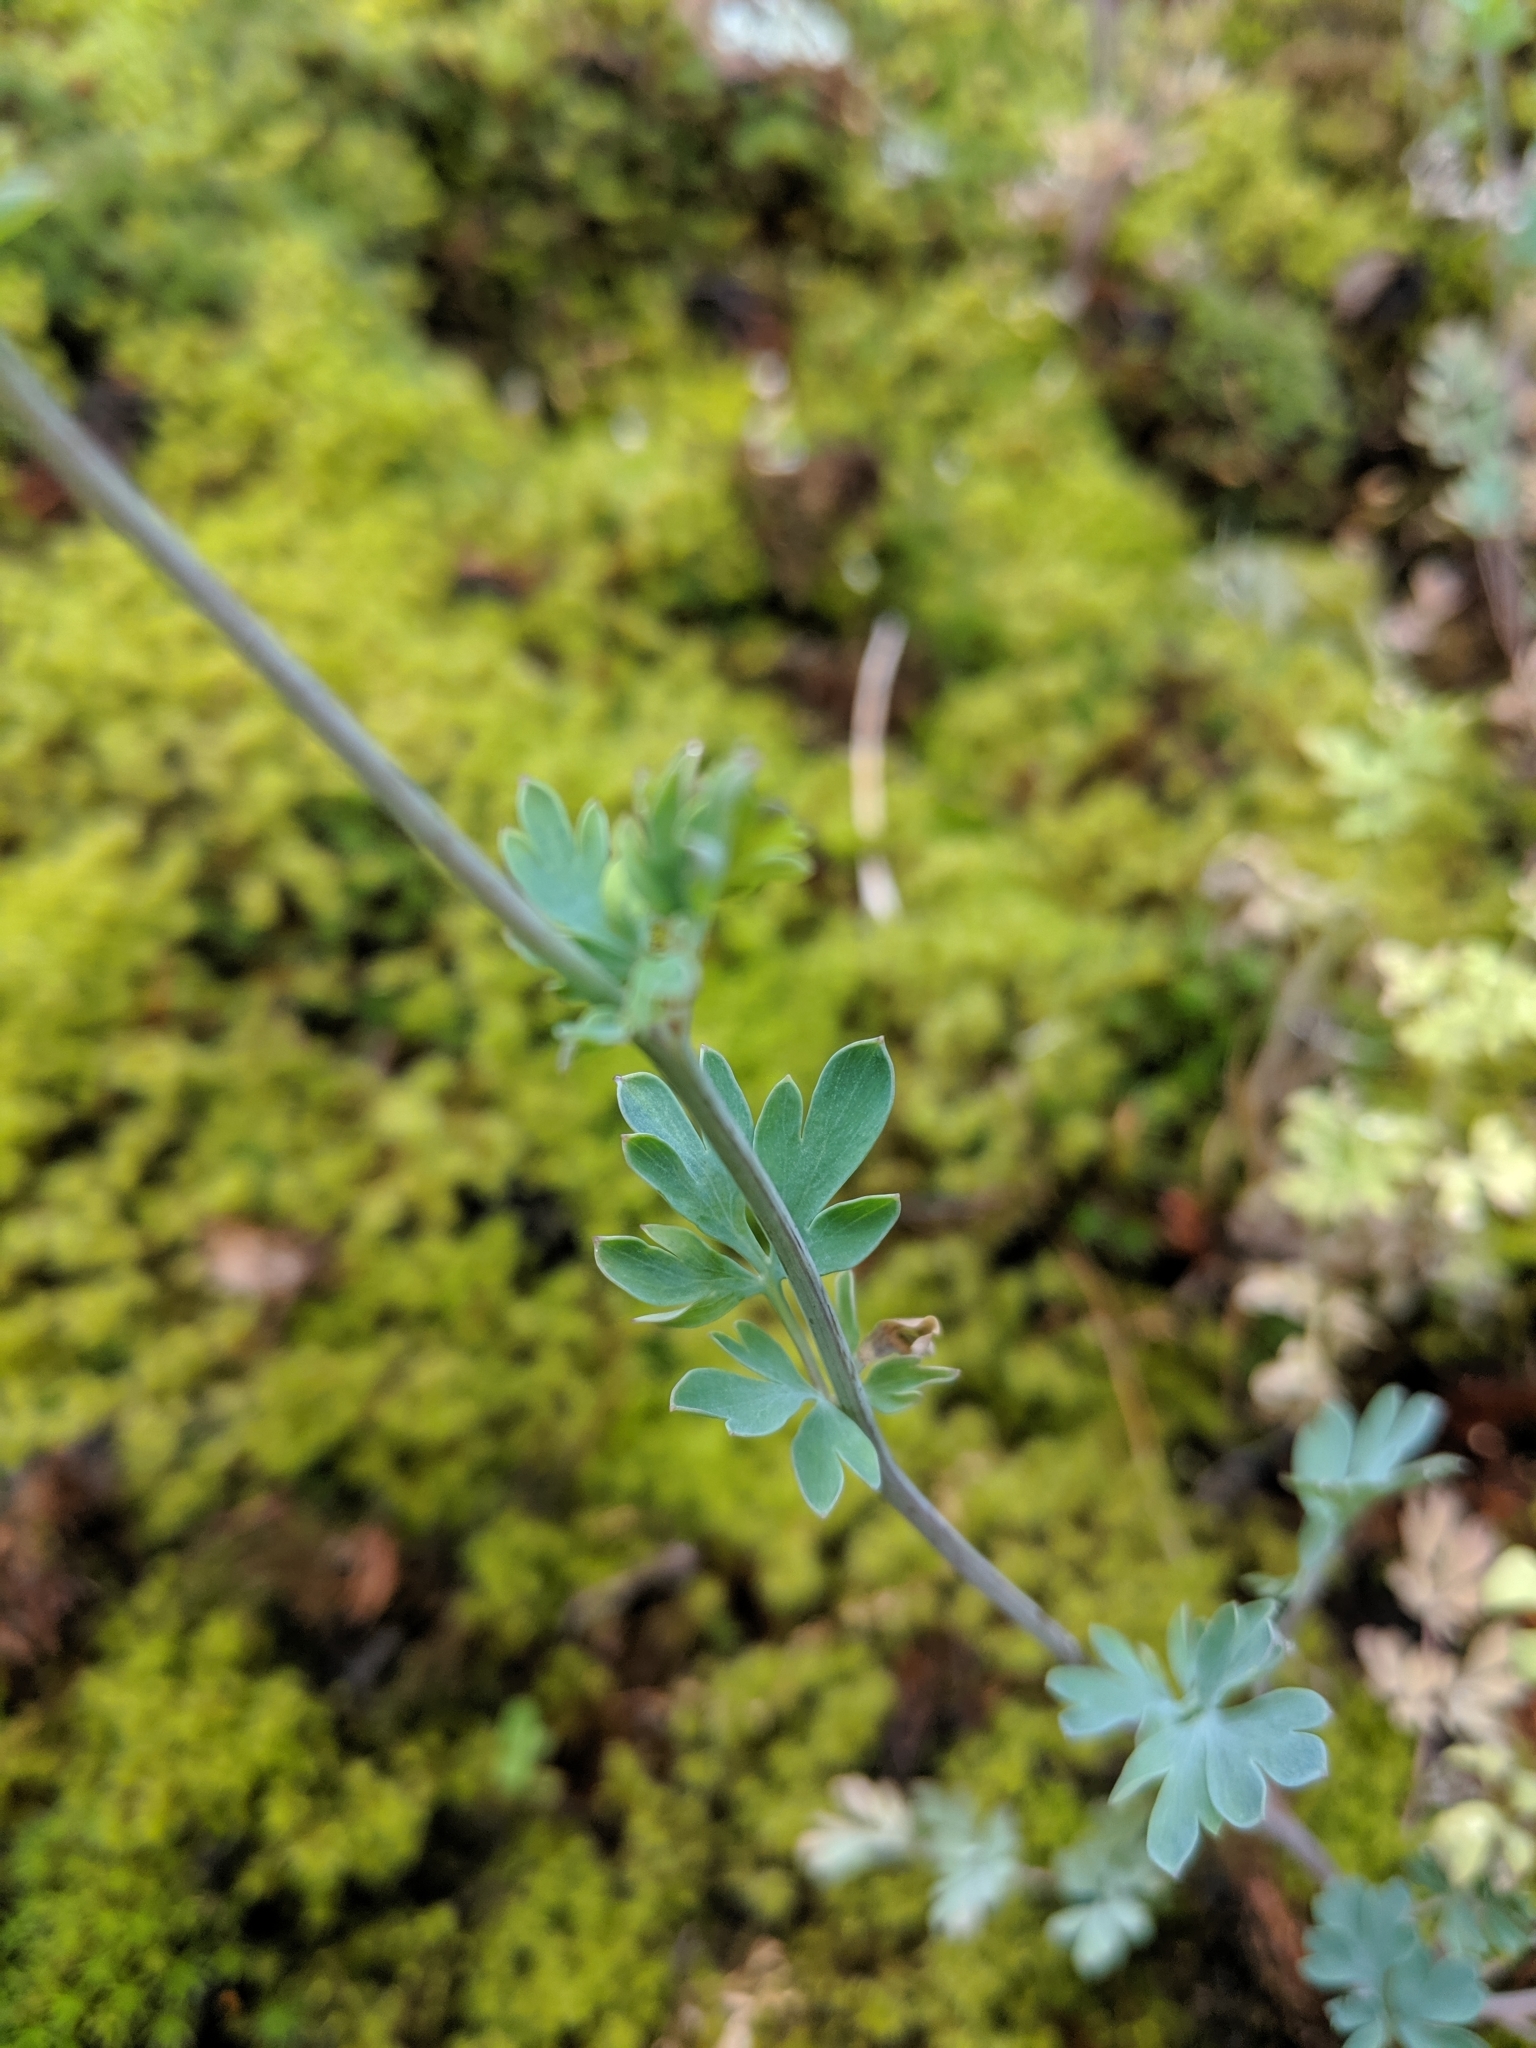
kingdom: Plantae
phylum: Tracheophyta
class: Magnoliopsida
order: Ranunculales
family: Papaveraceae
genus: Capnoides
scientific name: Capnoides sempervirens
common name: Rock harlequin
